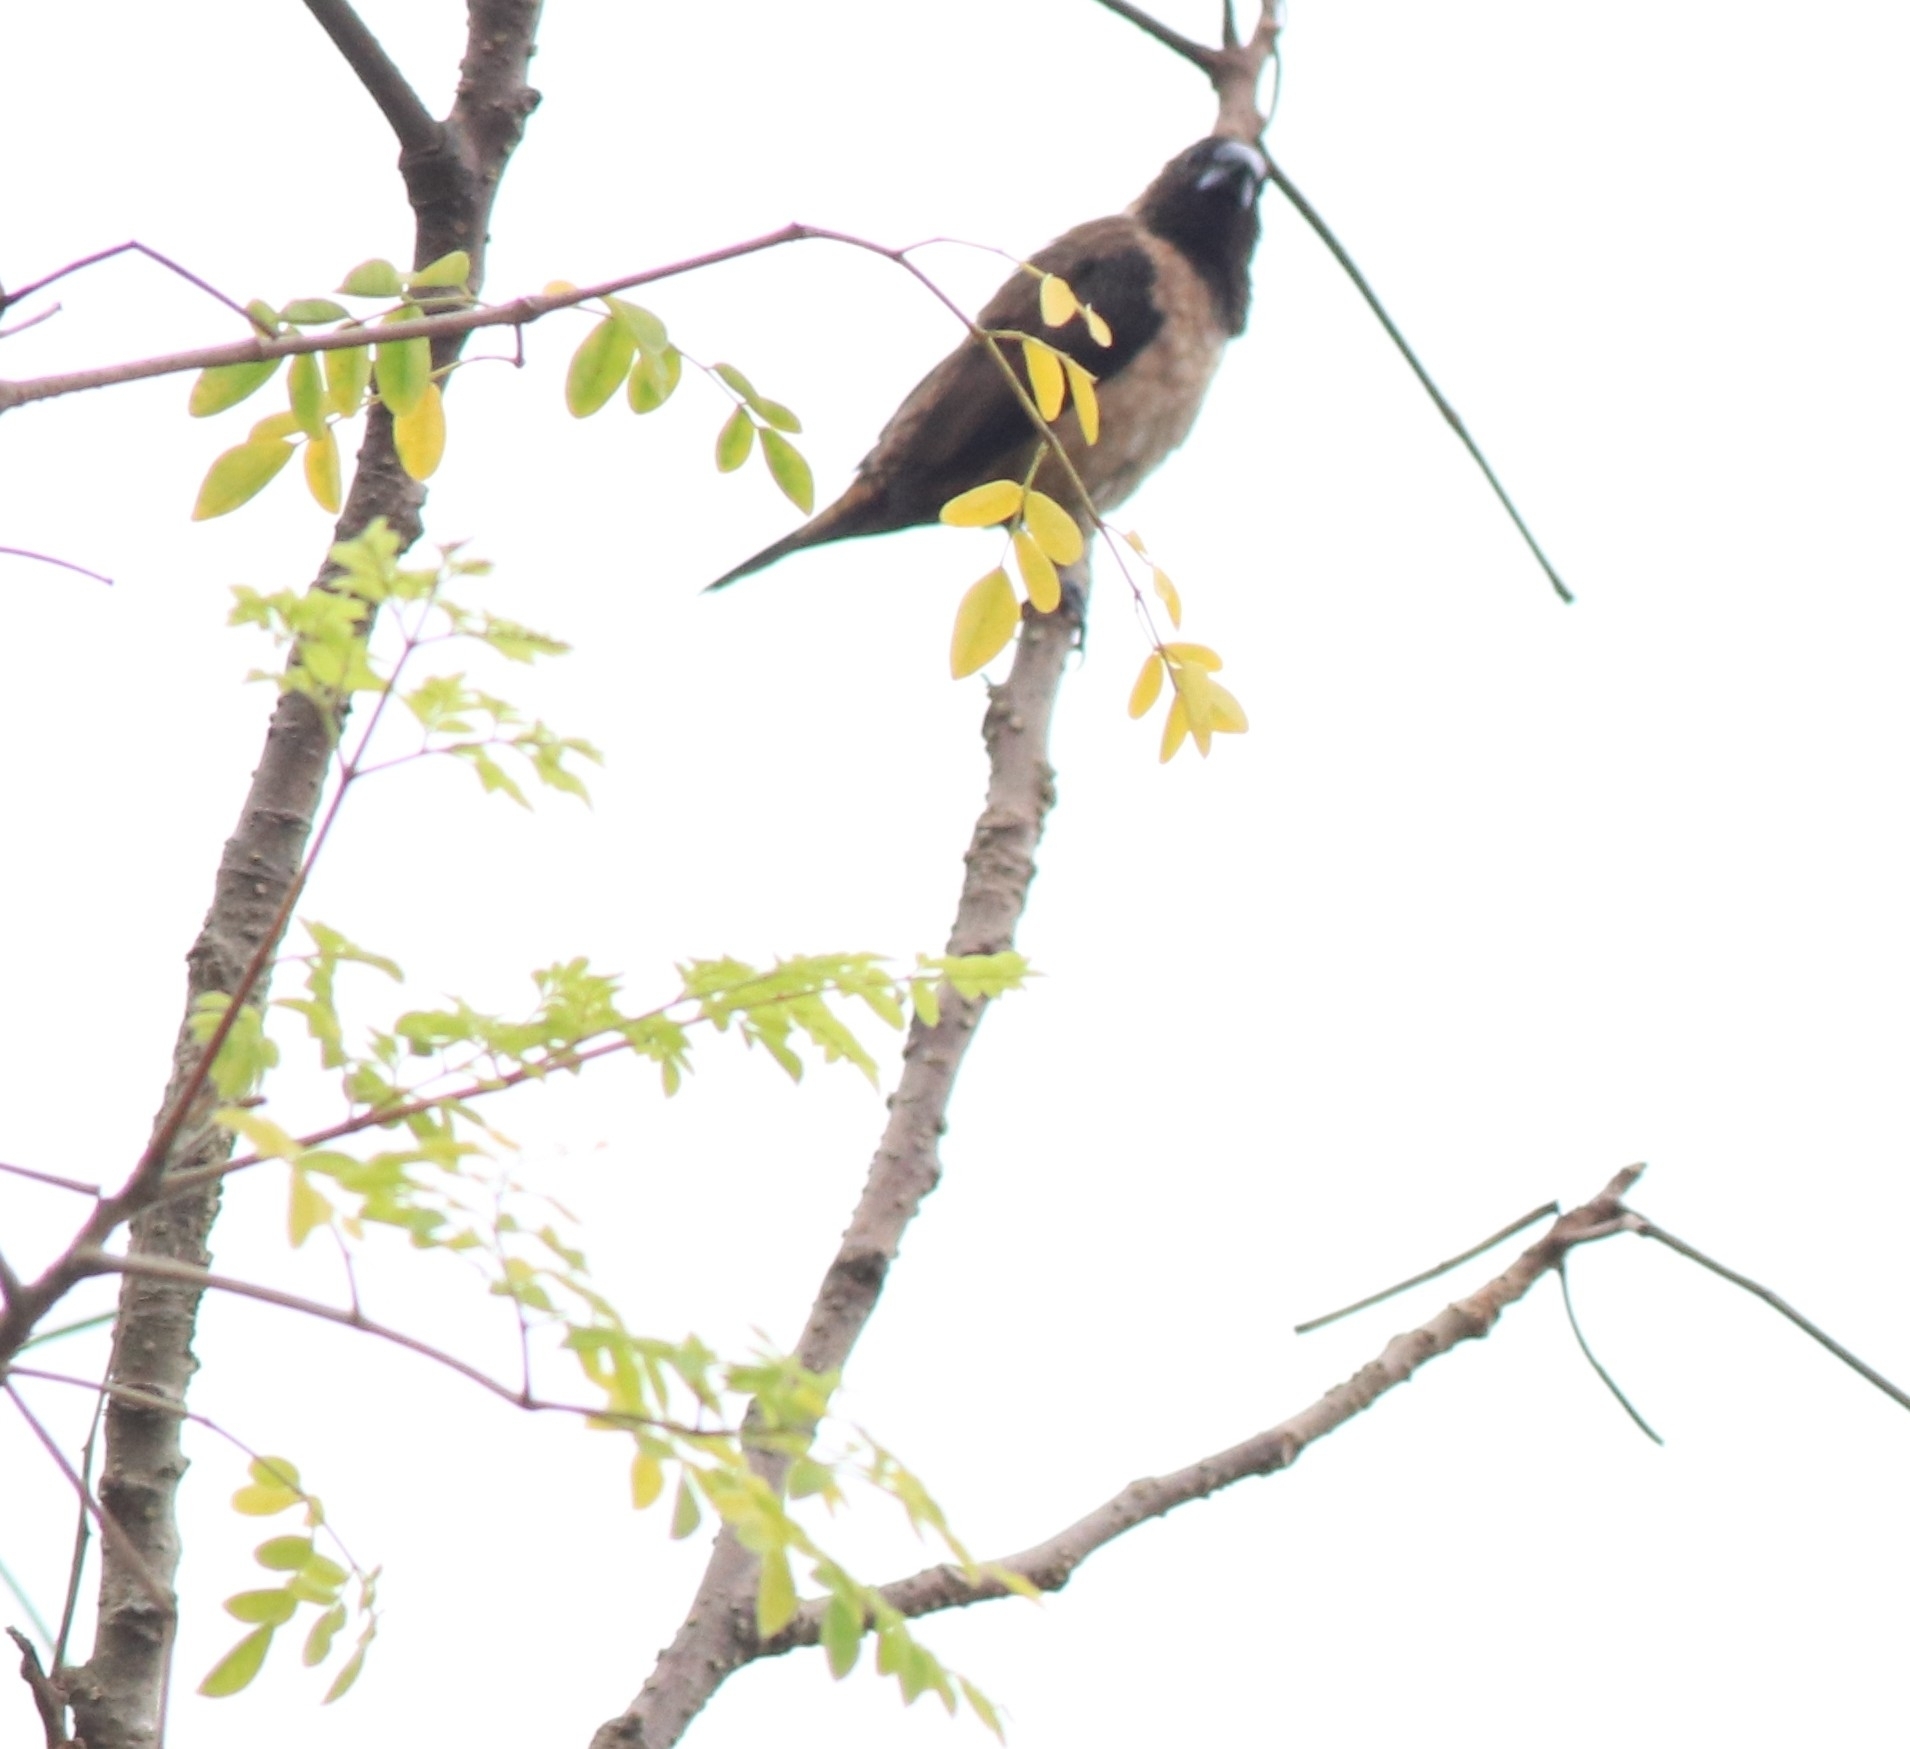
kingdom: Animalia
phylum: Chordata
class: Aves
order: Passeriformes
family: Estrildidae
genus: Lonchura
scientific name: Lonchura kelaarti
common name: Black-throated munia
